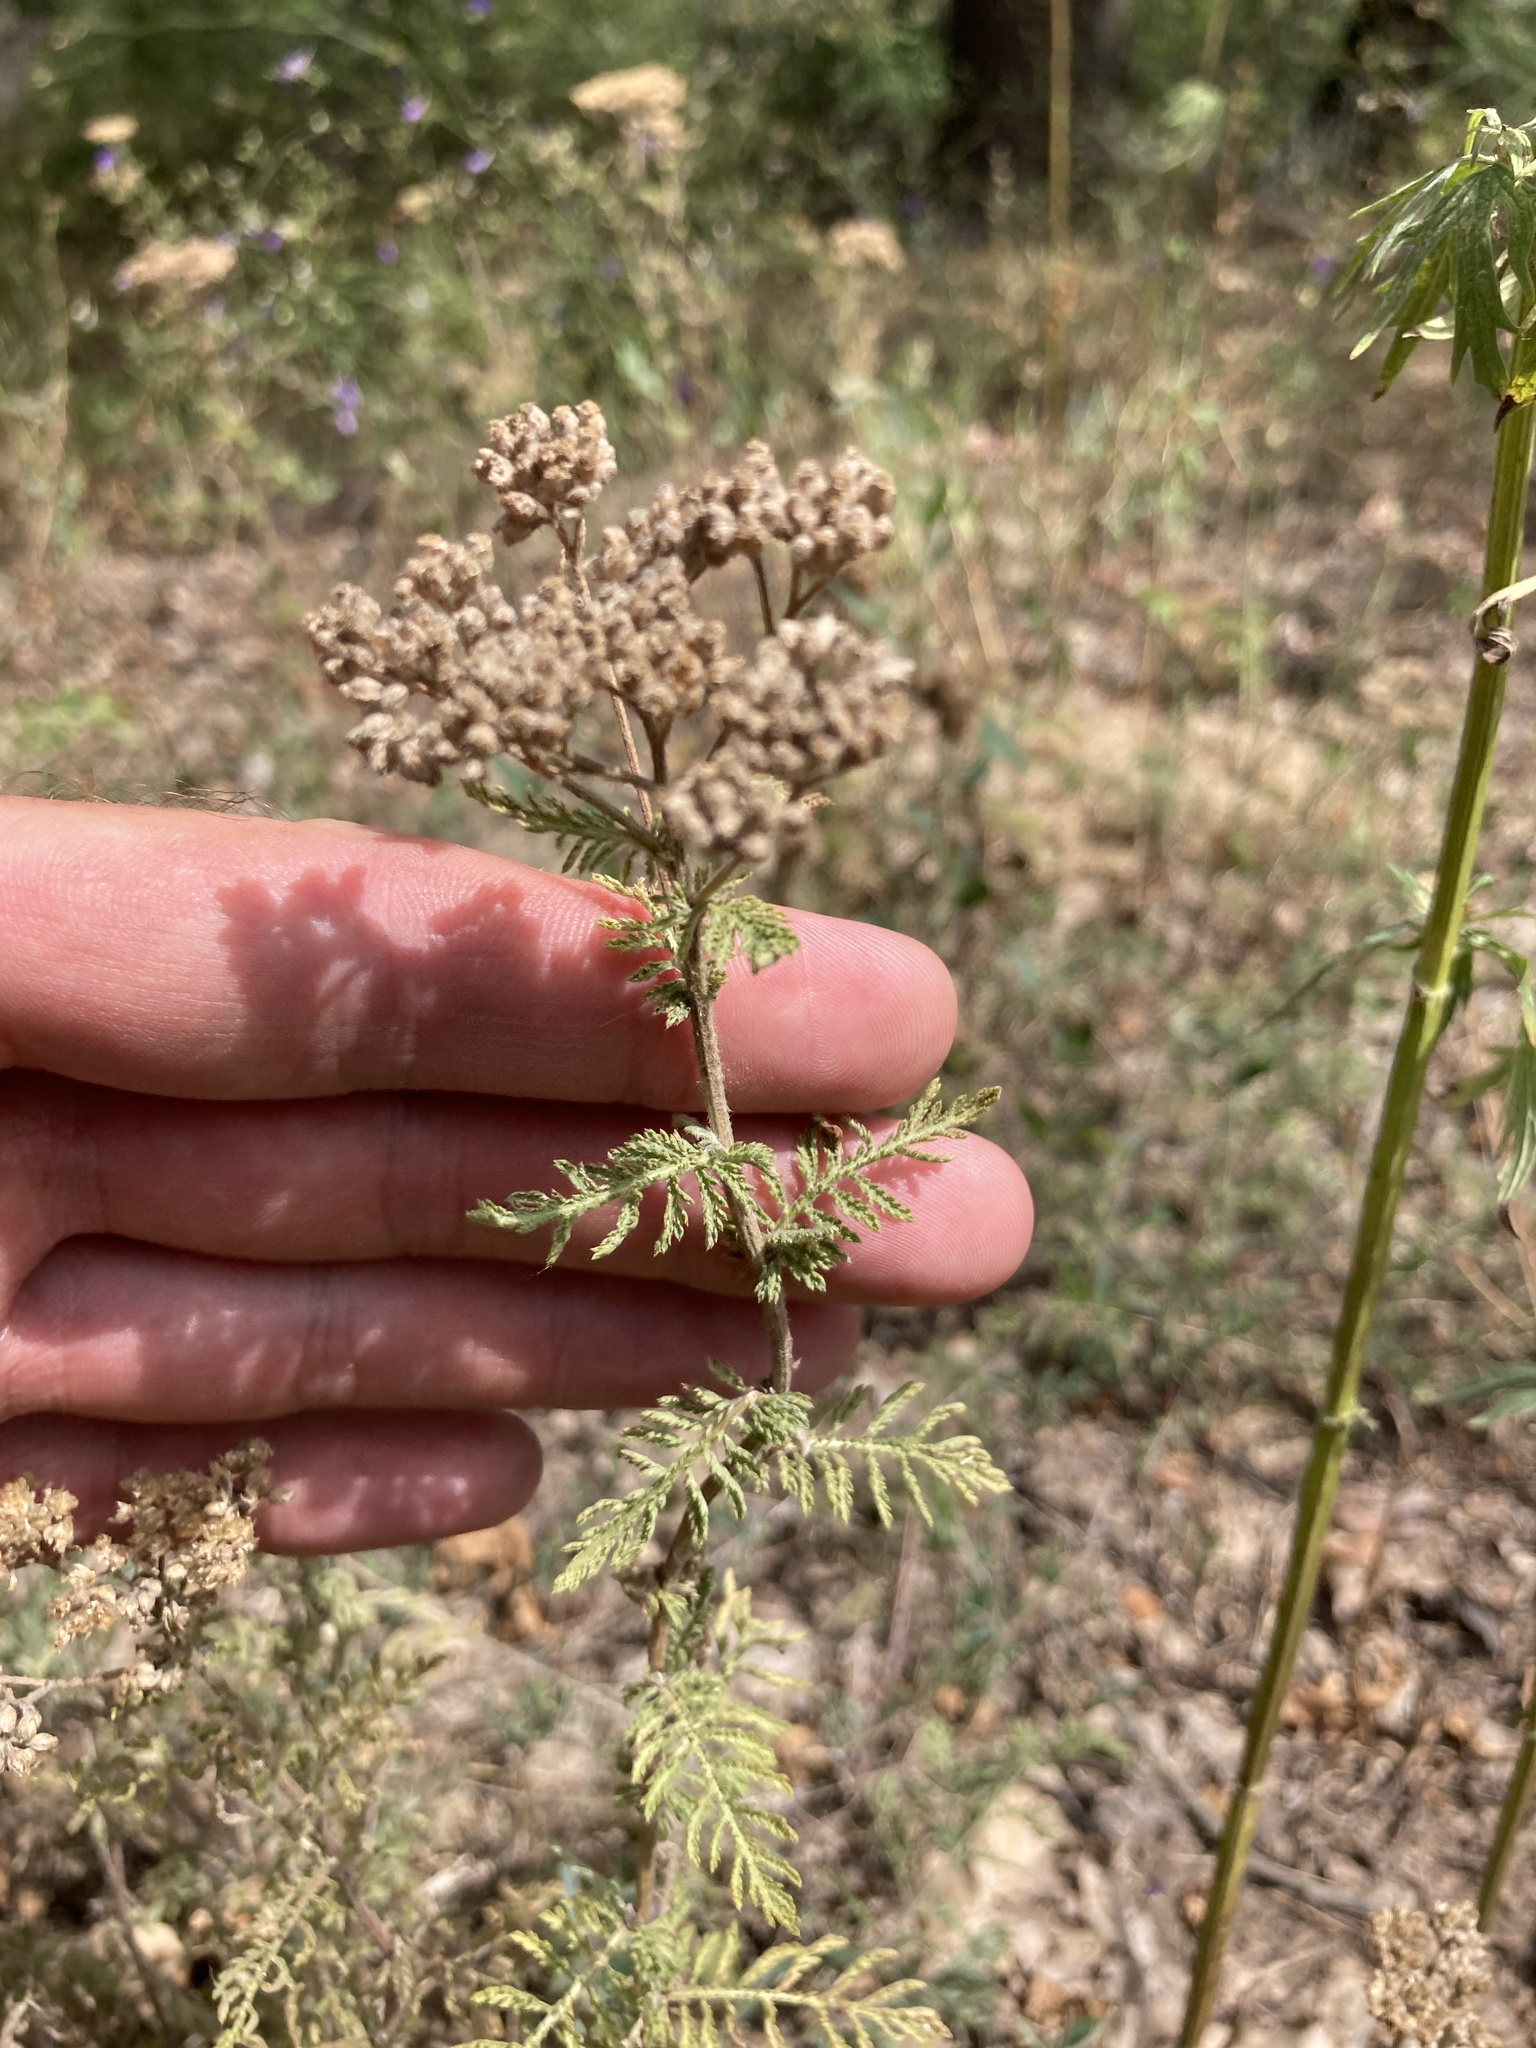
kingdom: Plantae
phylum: Tracheophyta
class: Magnoliopsida
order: Asterales
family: Asteraceae
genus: Achillea
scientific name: Achillea nobilis
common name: Noble yarrow
